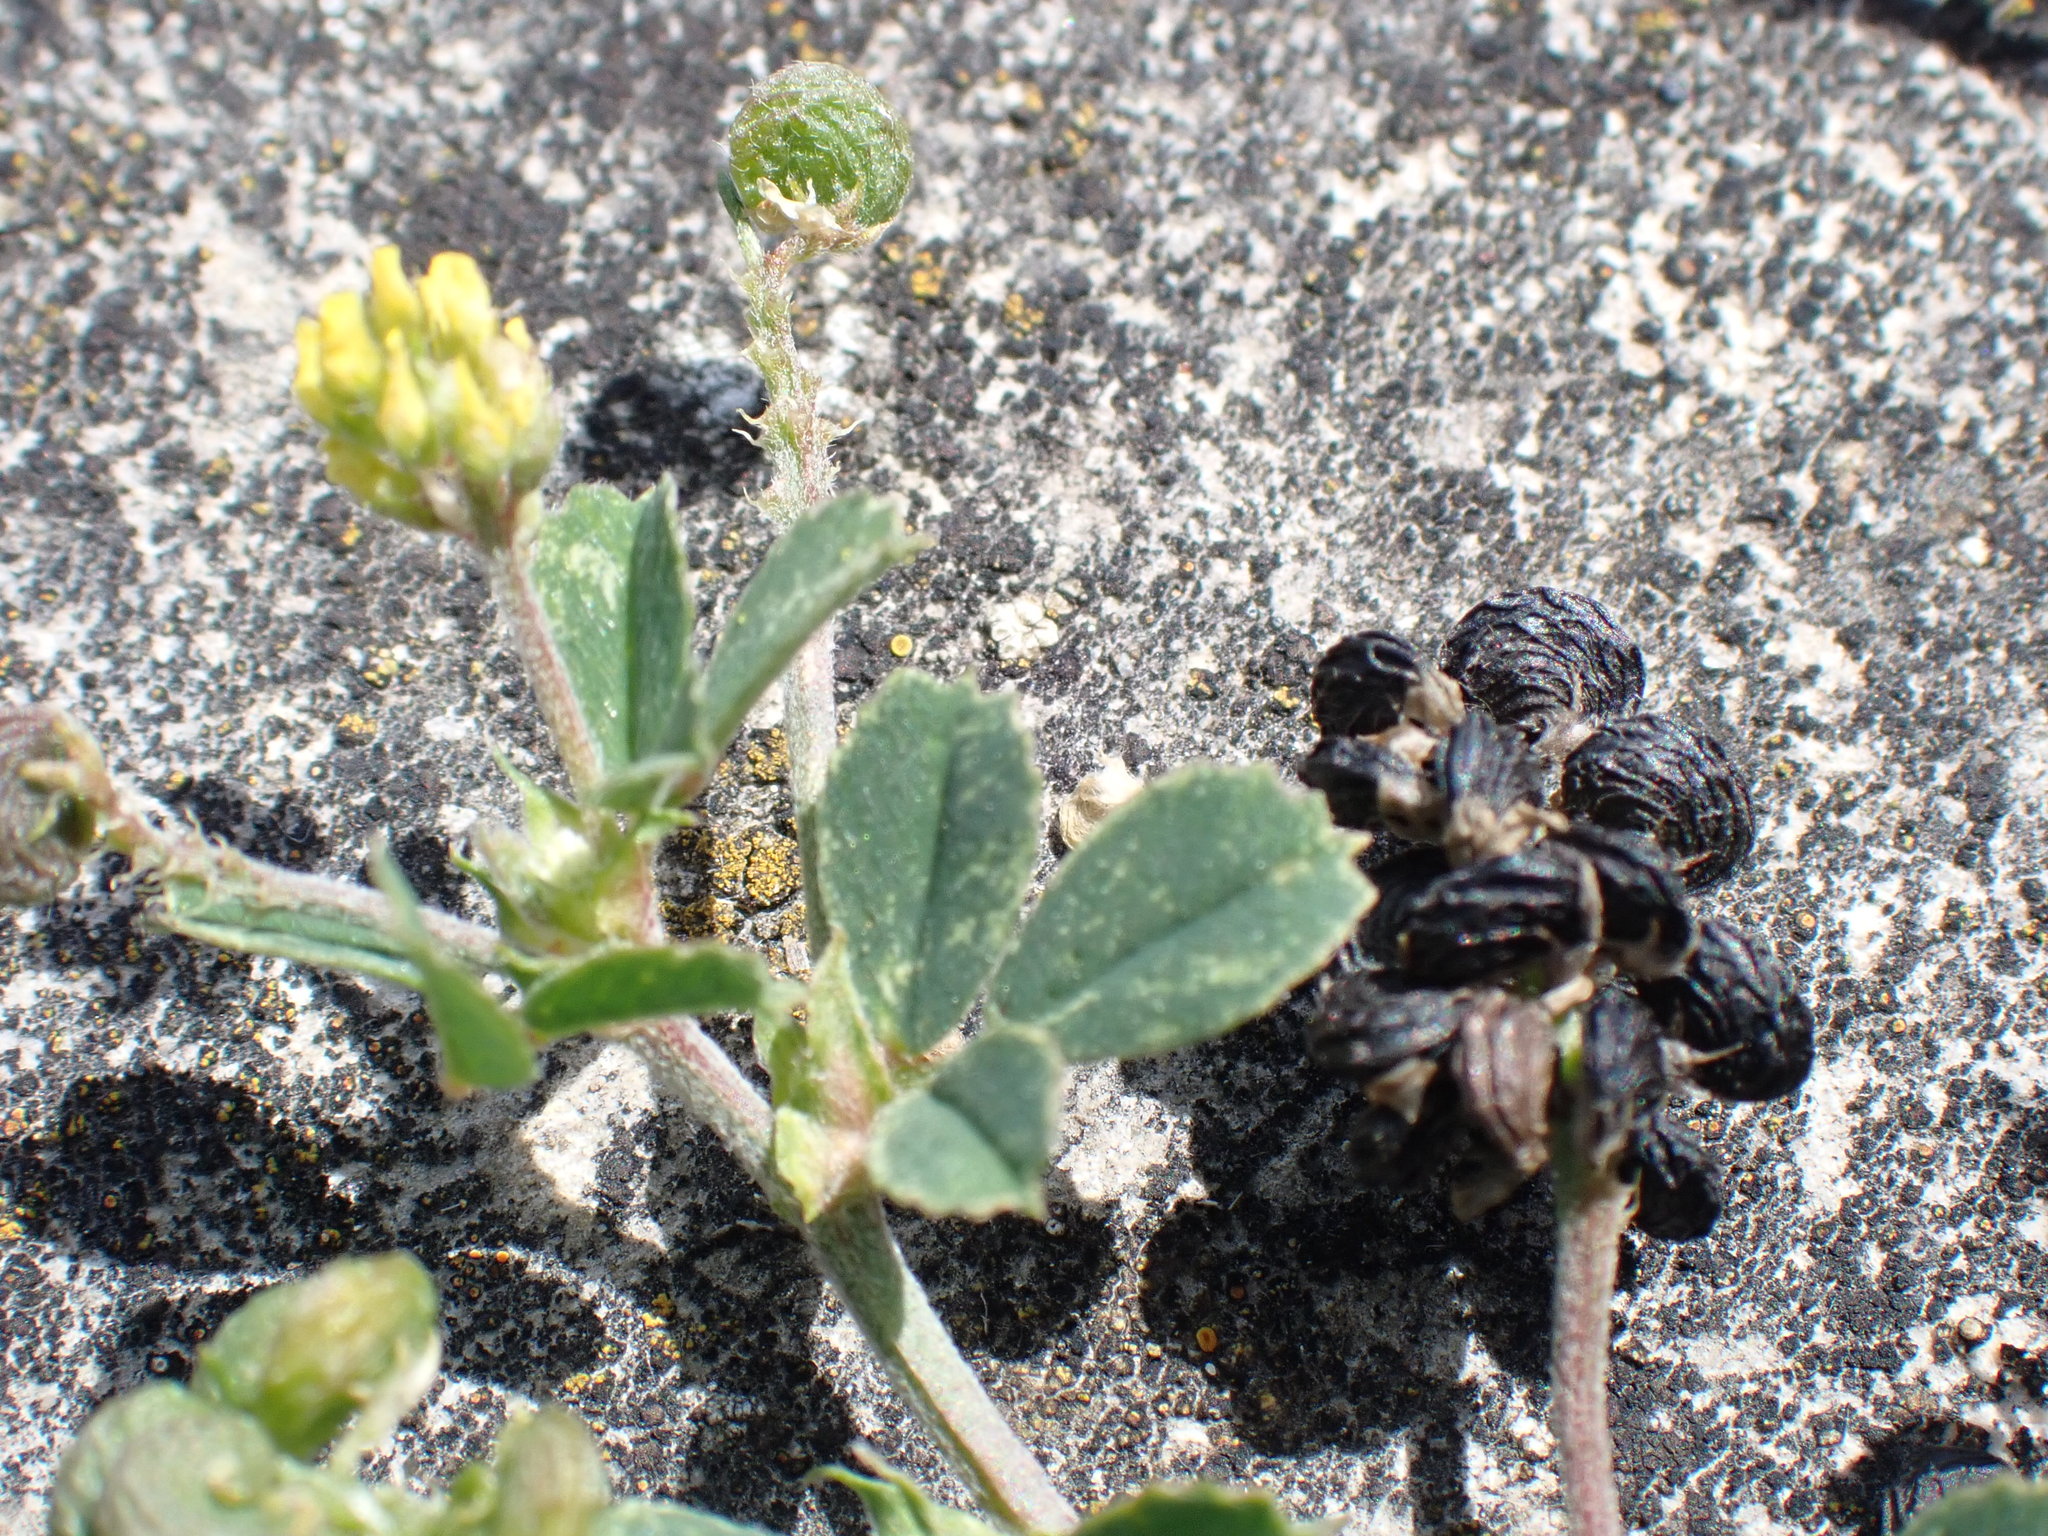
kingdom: Plantae
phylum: Tracheophyta
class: Magnoliopsida
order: Fabales
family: Fabaceae
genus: Medicago
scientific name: Medicago lupulina
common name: Black medick
